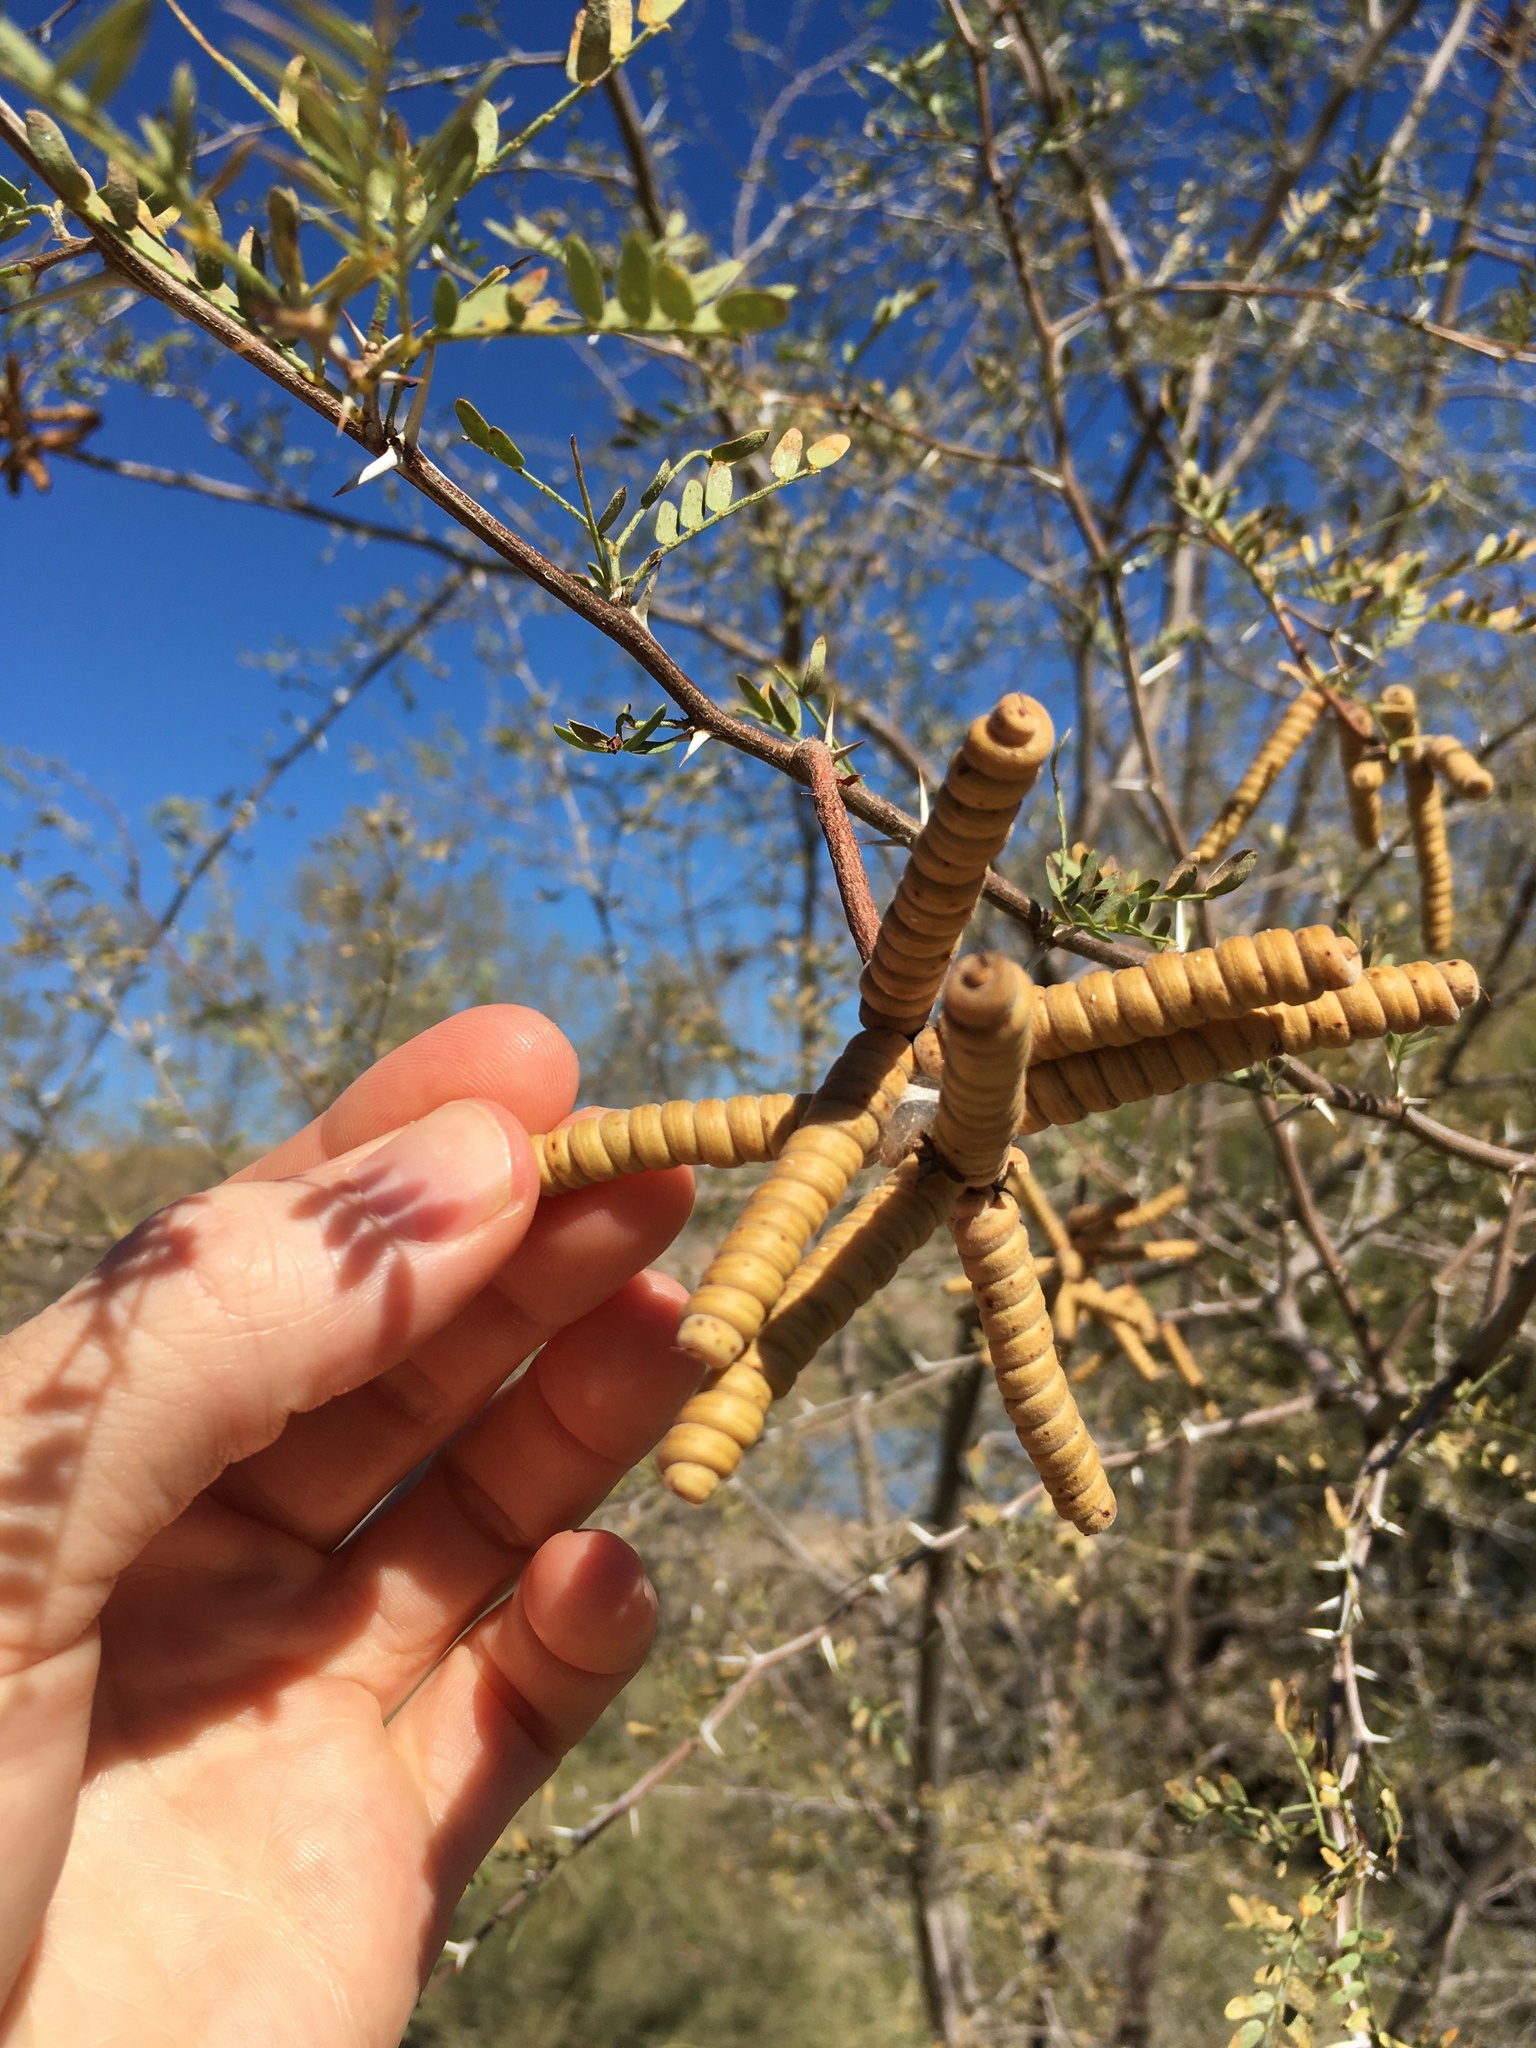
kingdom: Plantae
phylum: Tracheophyta
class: Magnoliopsida
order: Fabales
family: Fabaceae
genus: Prosopis
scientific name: Prosopis pubescens
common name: Screw-bean
